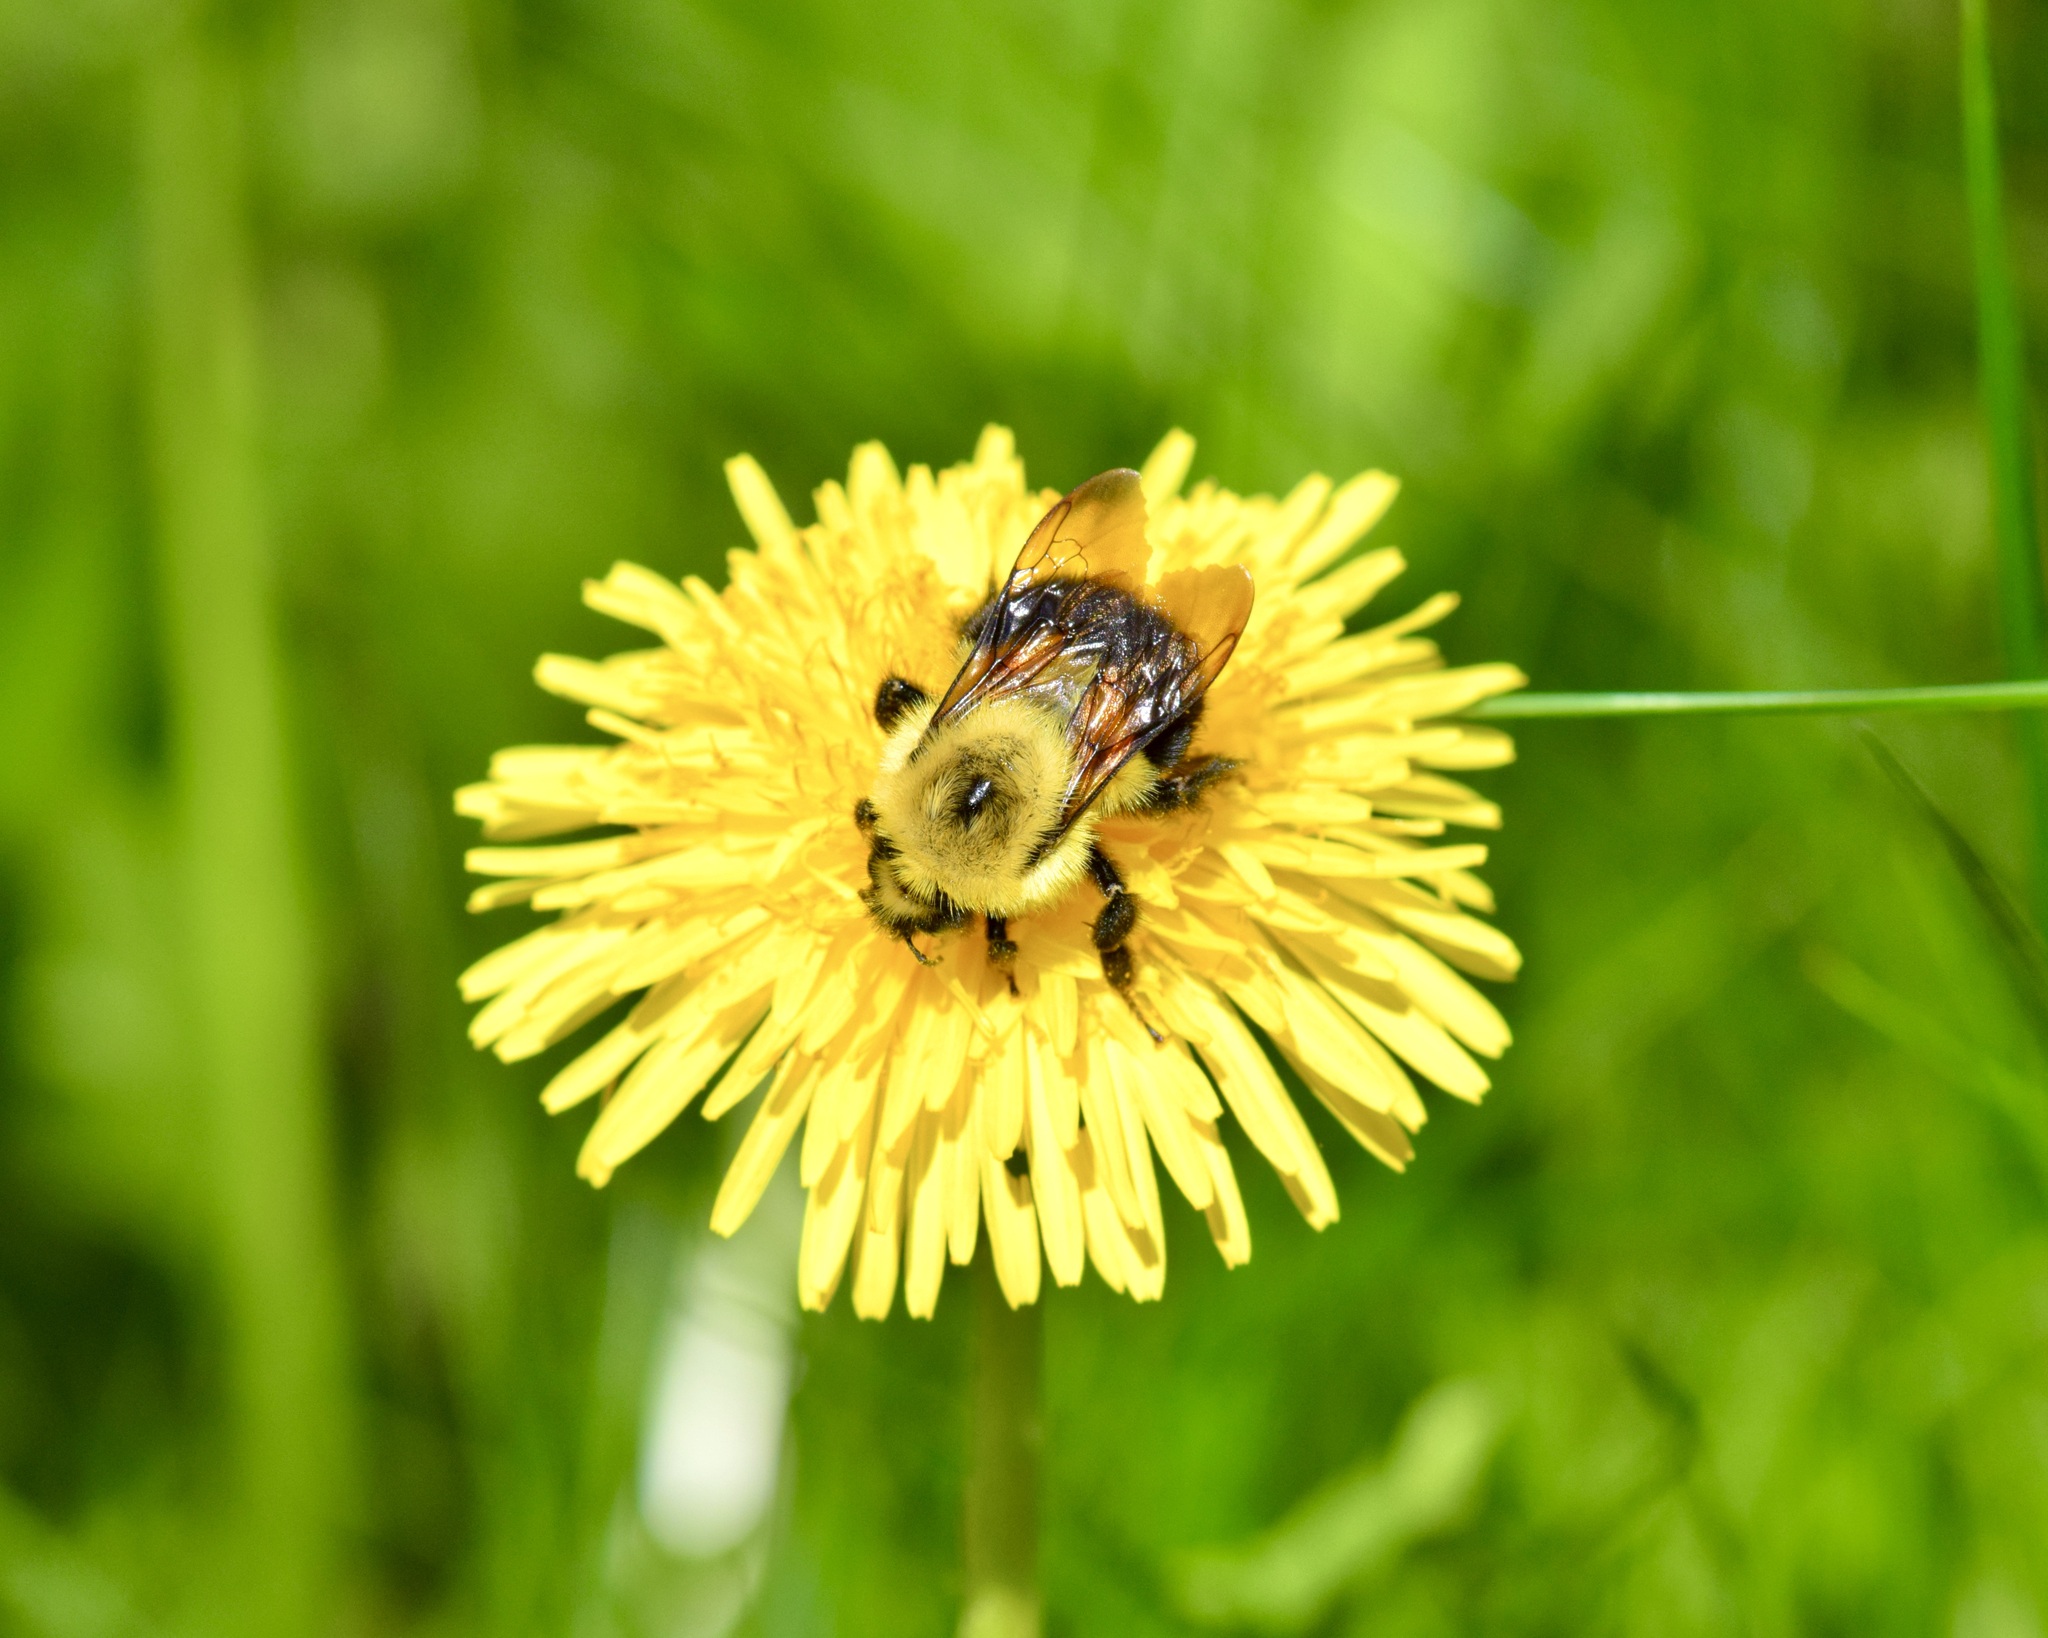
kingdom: Animalia
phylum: Arthropoda
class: Insecta
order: Hymenoptera
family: Apidae
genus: Bombus
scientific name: Bombus bimaculatus
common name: Two-spotted bumble bee
